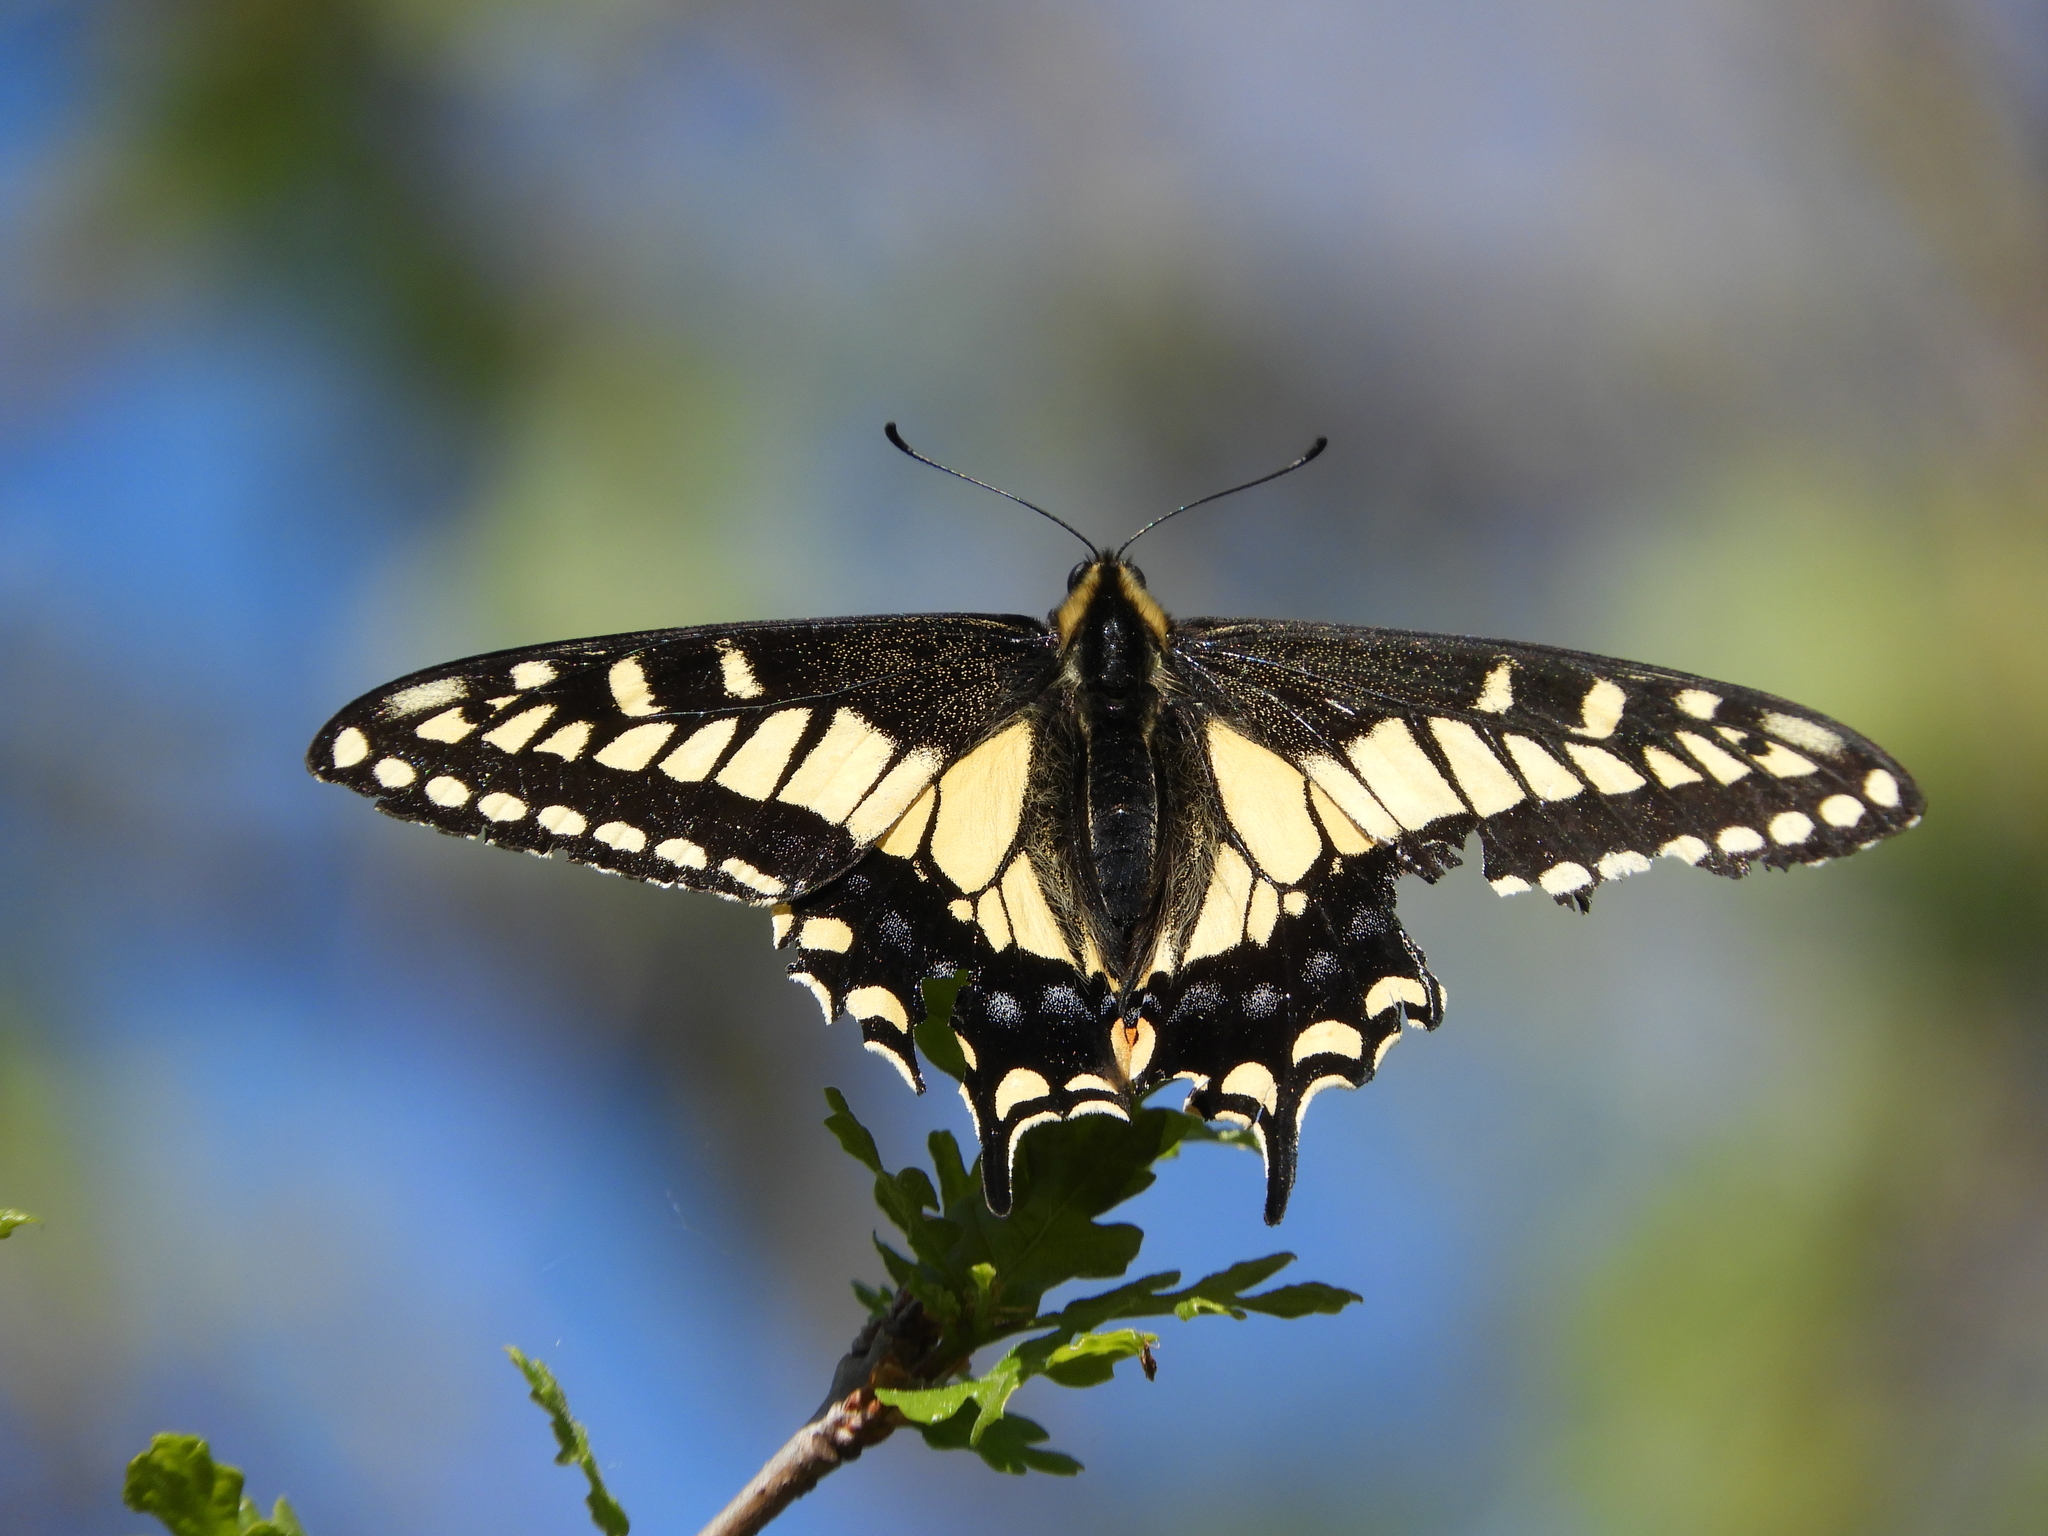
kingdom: Animalia
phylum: Arthropoda
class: Insecta
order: Lepidoptera
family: Papilionidae
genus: Papilio
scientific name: Papilio zelicaon
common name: Anise swallowtail
